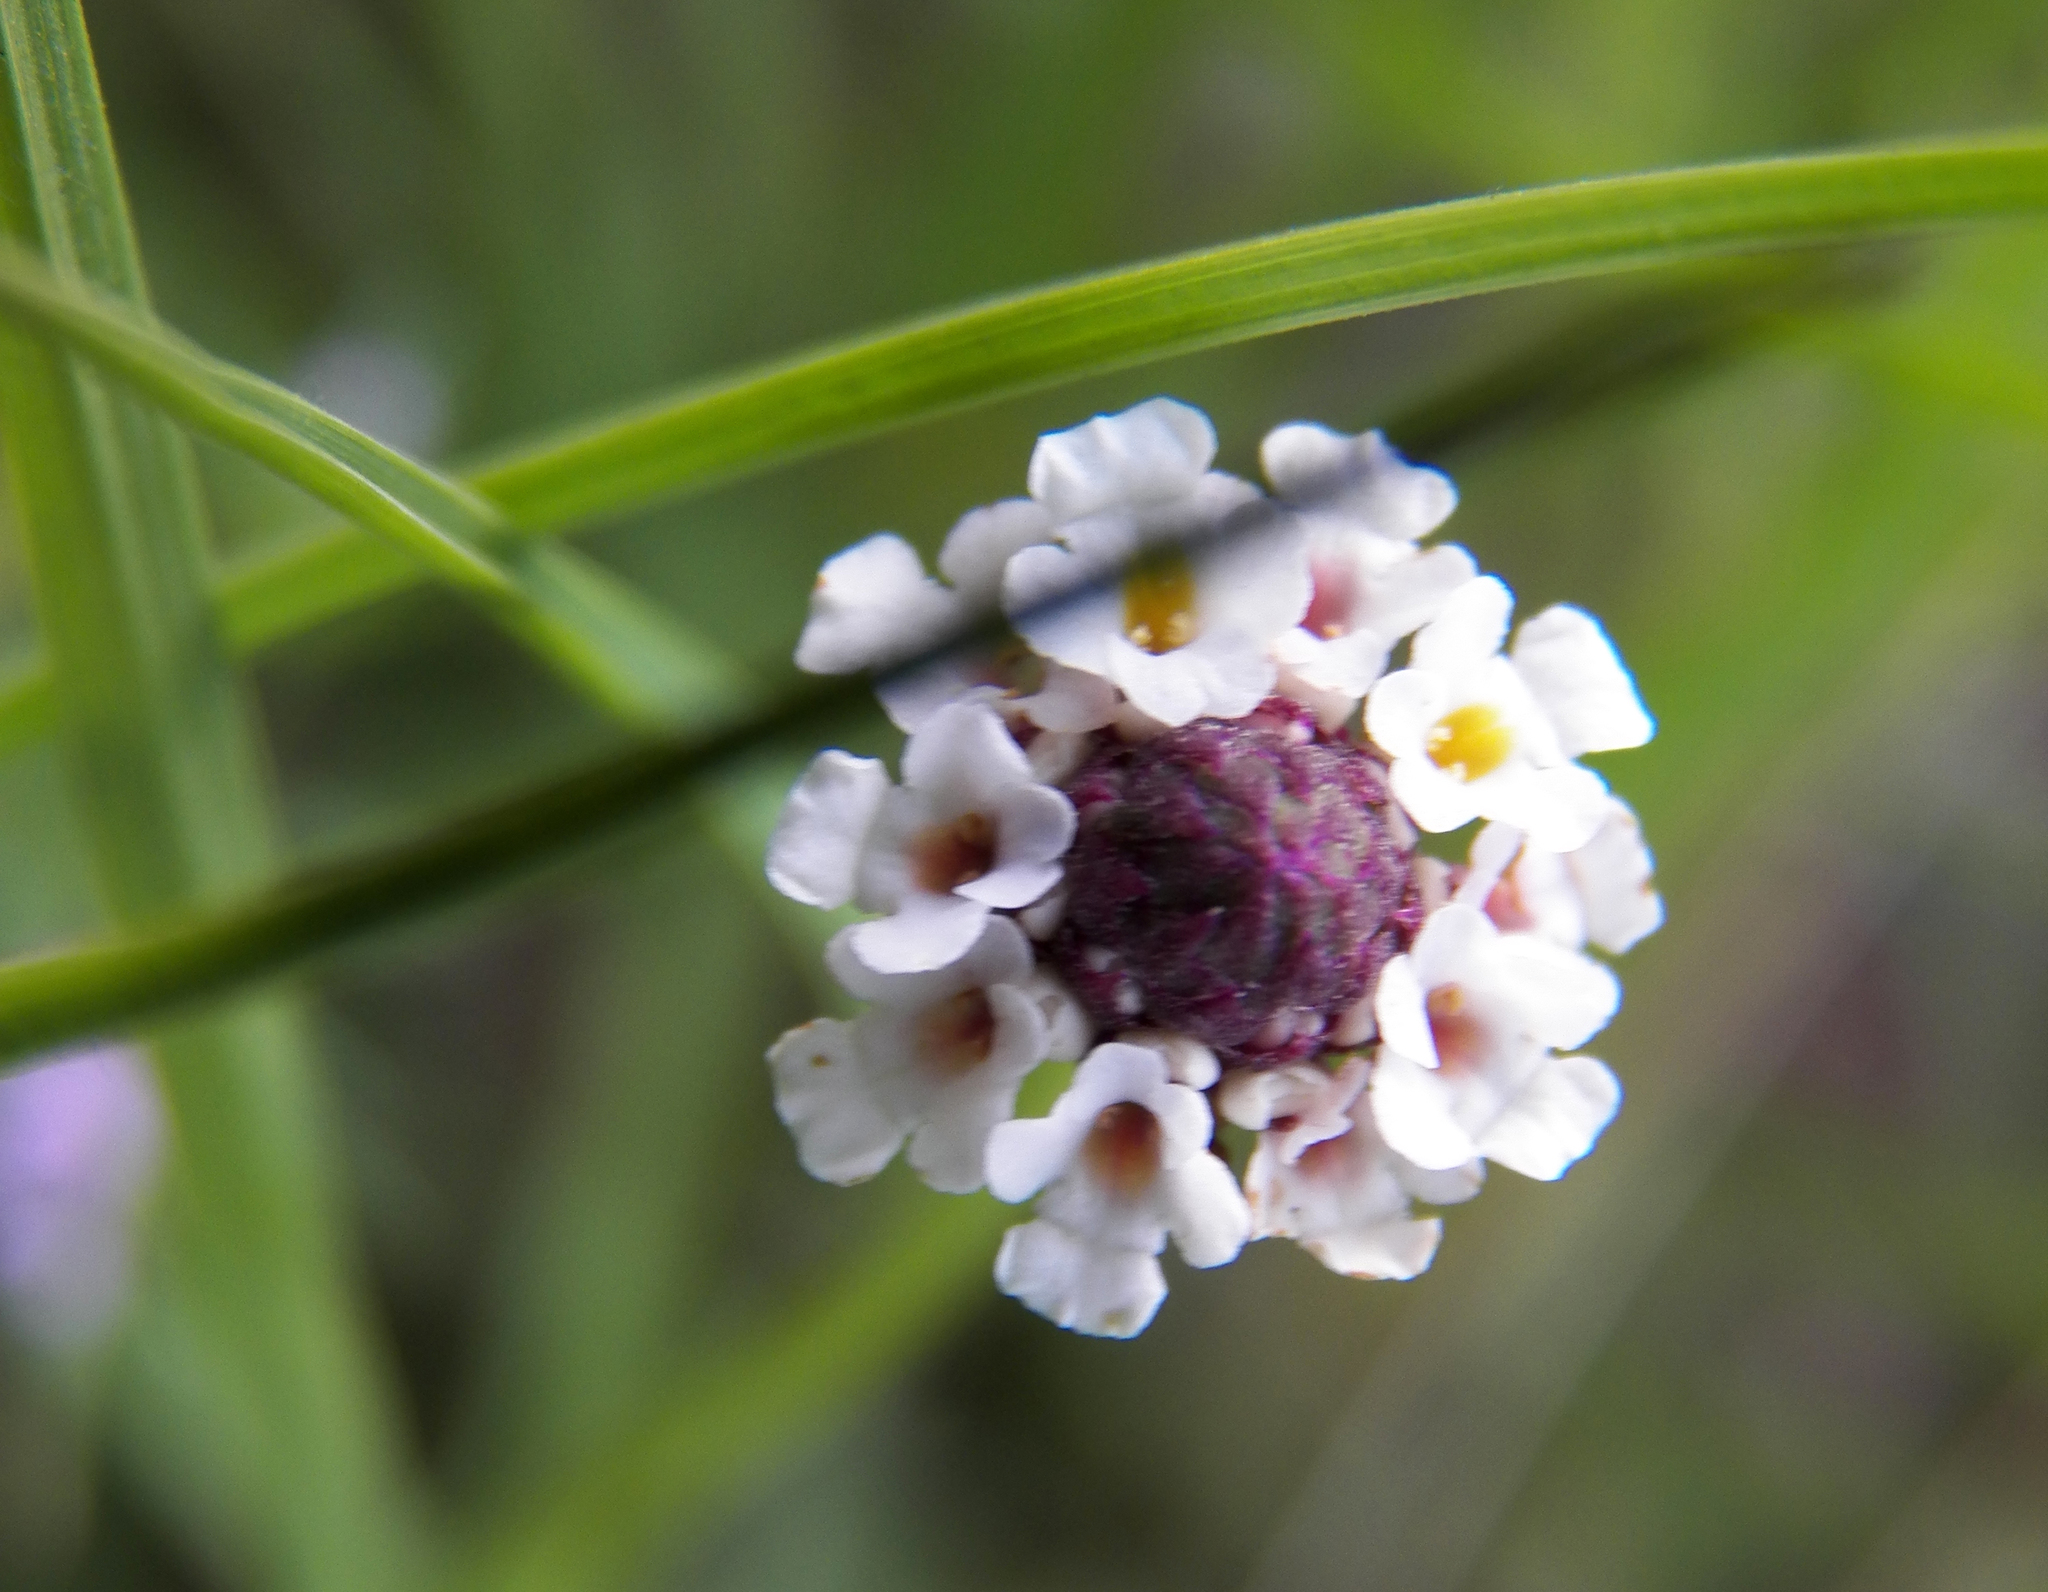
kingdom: Plantae
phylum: Tracheophyta
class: Magnoliopsida
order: Lamiales
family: Verbenaceae
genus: Phyla
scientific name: Phyla nodiflora
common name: Frogfruit
